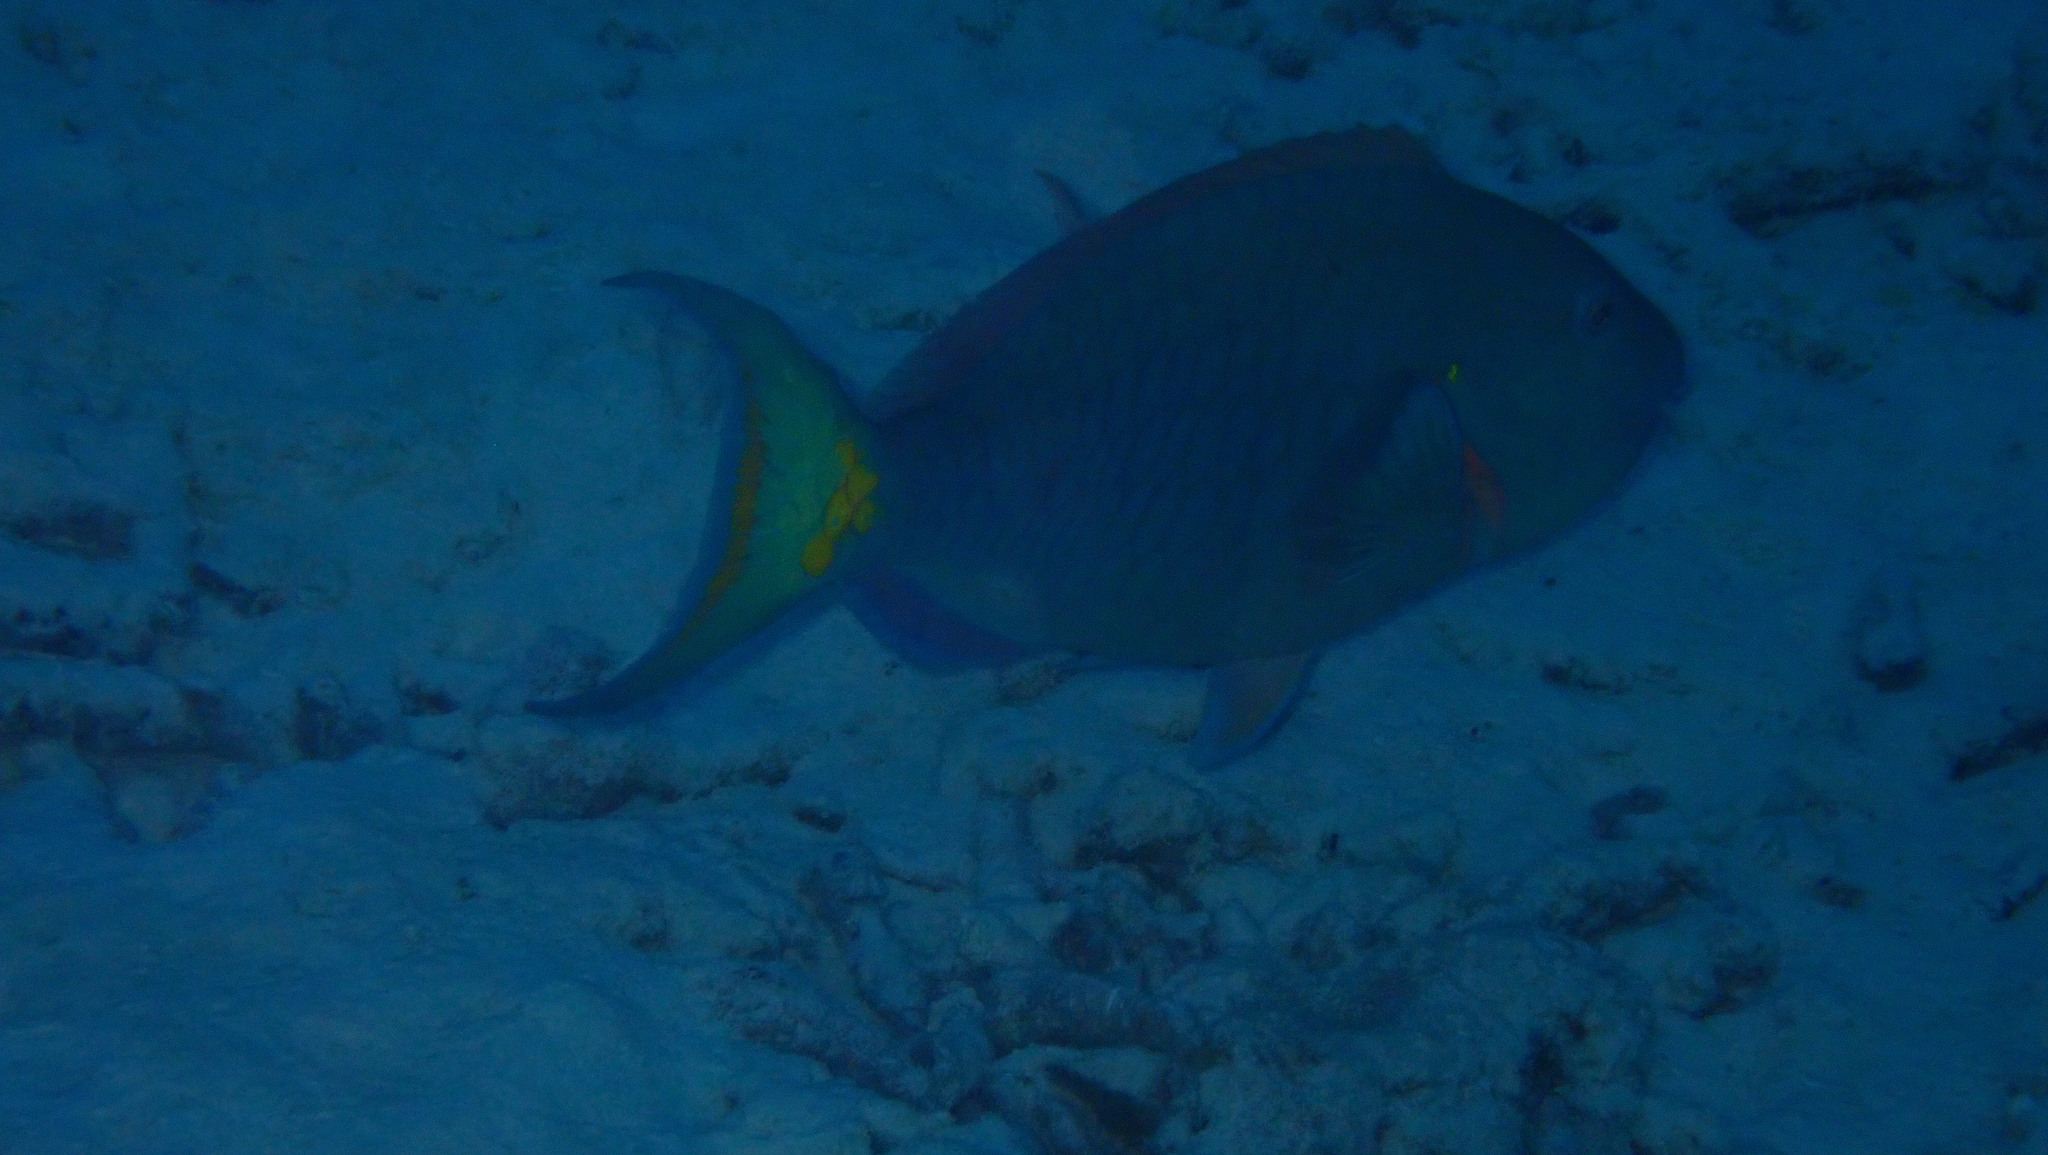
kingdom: Animalia
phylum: Chordata
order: Perciformes
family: Scaridae
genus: Sparisoma
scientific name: Sparisoma viride
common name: Stoplight parrotfish
